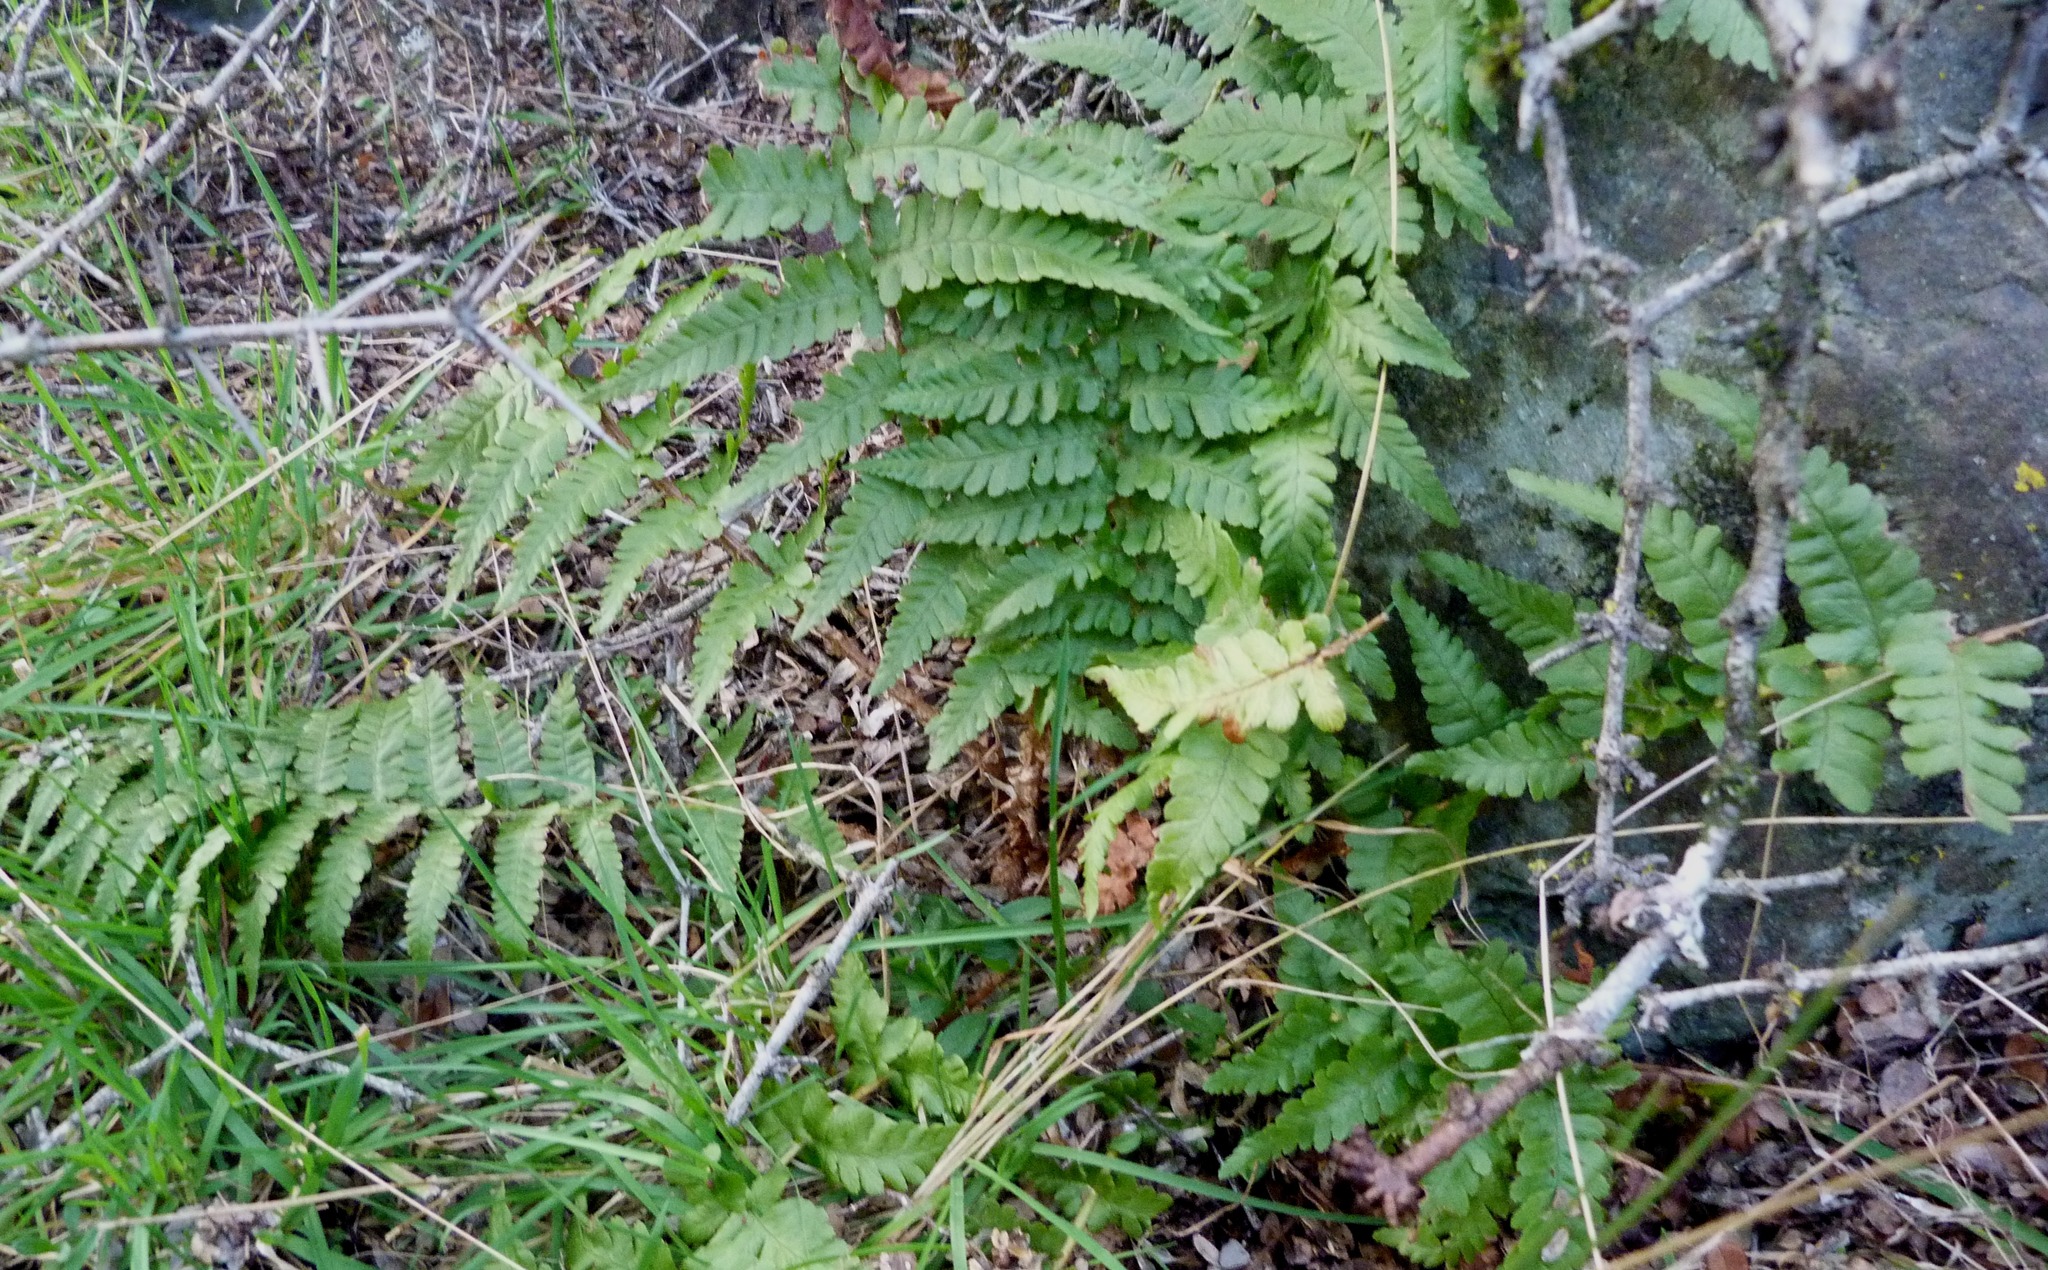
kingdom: Plantae
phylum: Tracheophyta
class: Polypodiopsida
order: Polypodiales
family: Dryopteridaceae
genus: Dryopteris
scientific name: Dryopteris filix-mas
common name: Male fern
